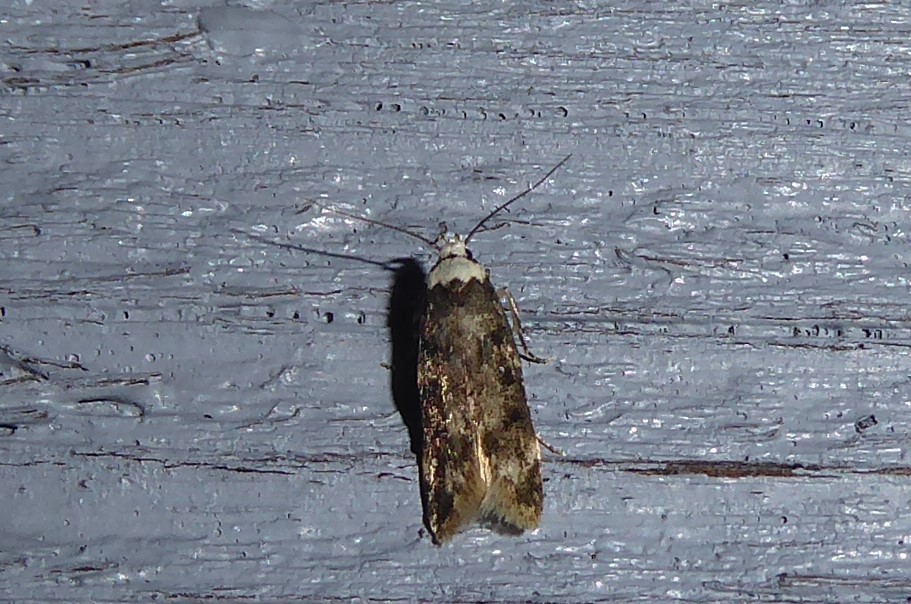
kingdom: Animalia
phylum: Arthropoda
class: Insecta
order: Lepidoptera
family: Oecophoridae
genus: Endrosis
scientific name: Endrosis sarcitrella
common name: White-shouldered house moth
